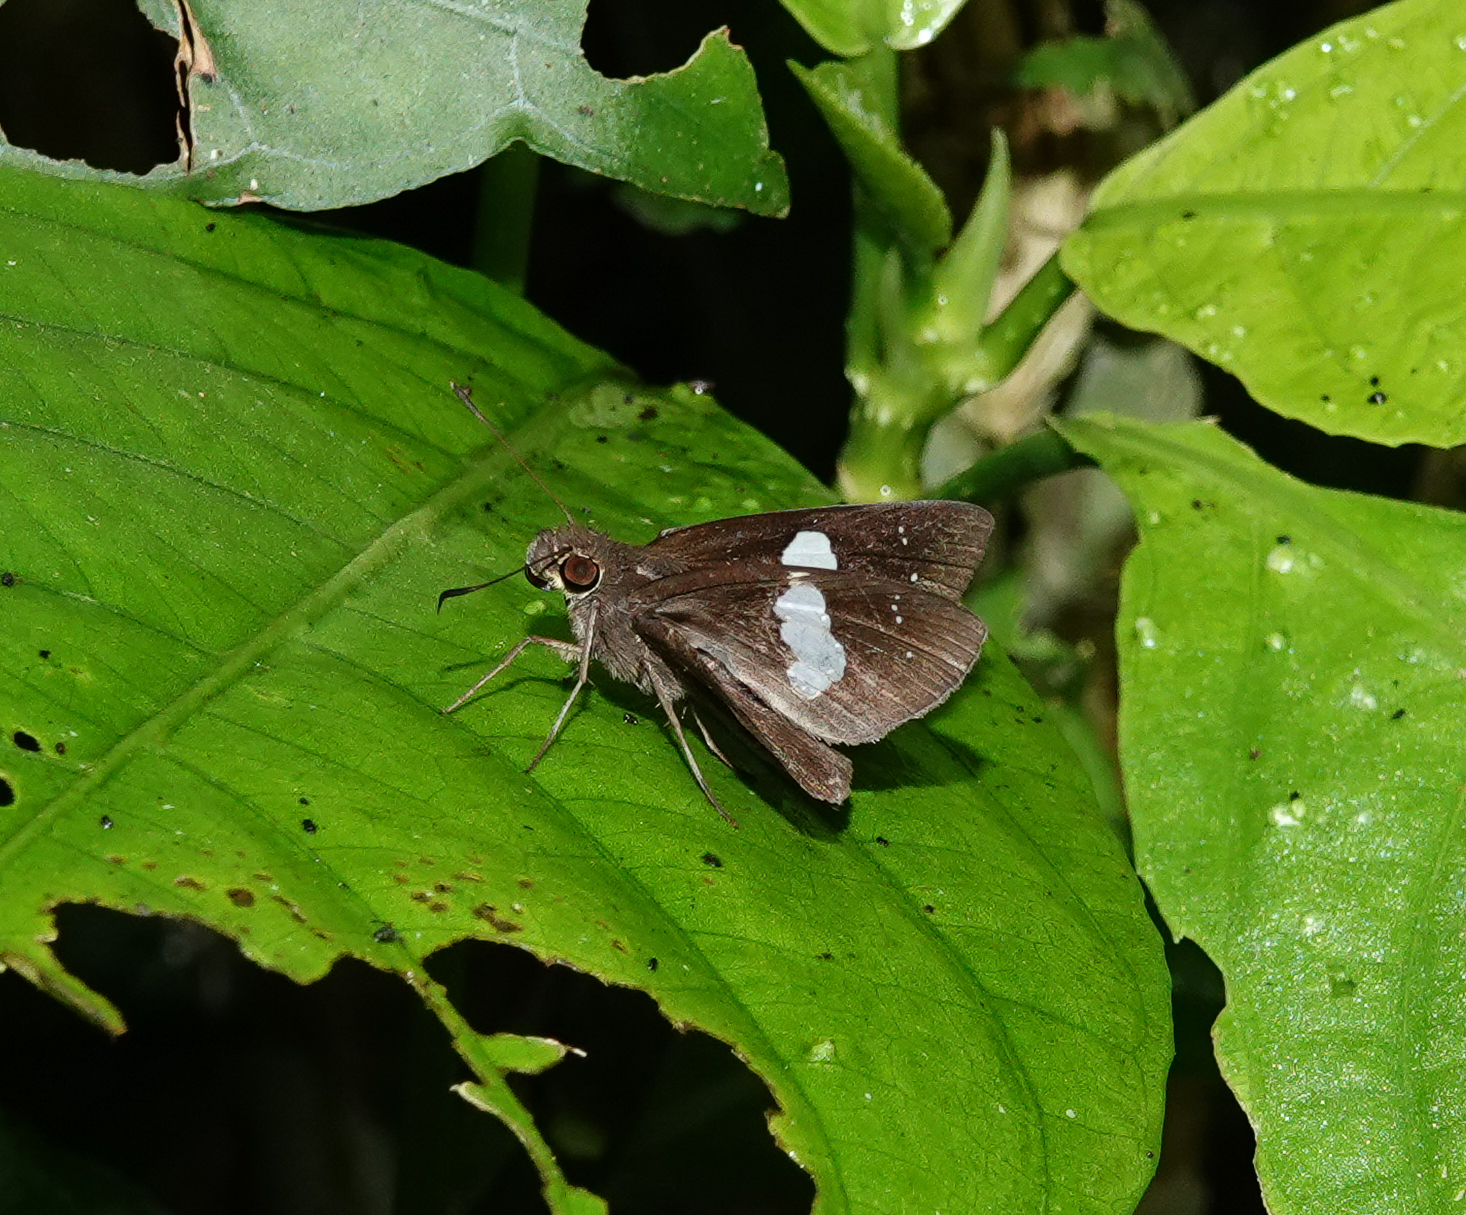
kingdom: Animalia
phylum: Arthropoda
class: Insecta
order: Lepidoptera
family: Hesperiidae
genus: Notocrypta
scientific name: Notocrypta paralysos
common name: Common banded demon
